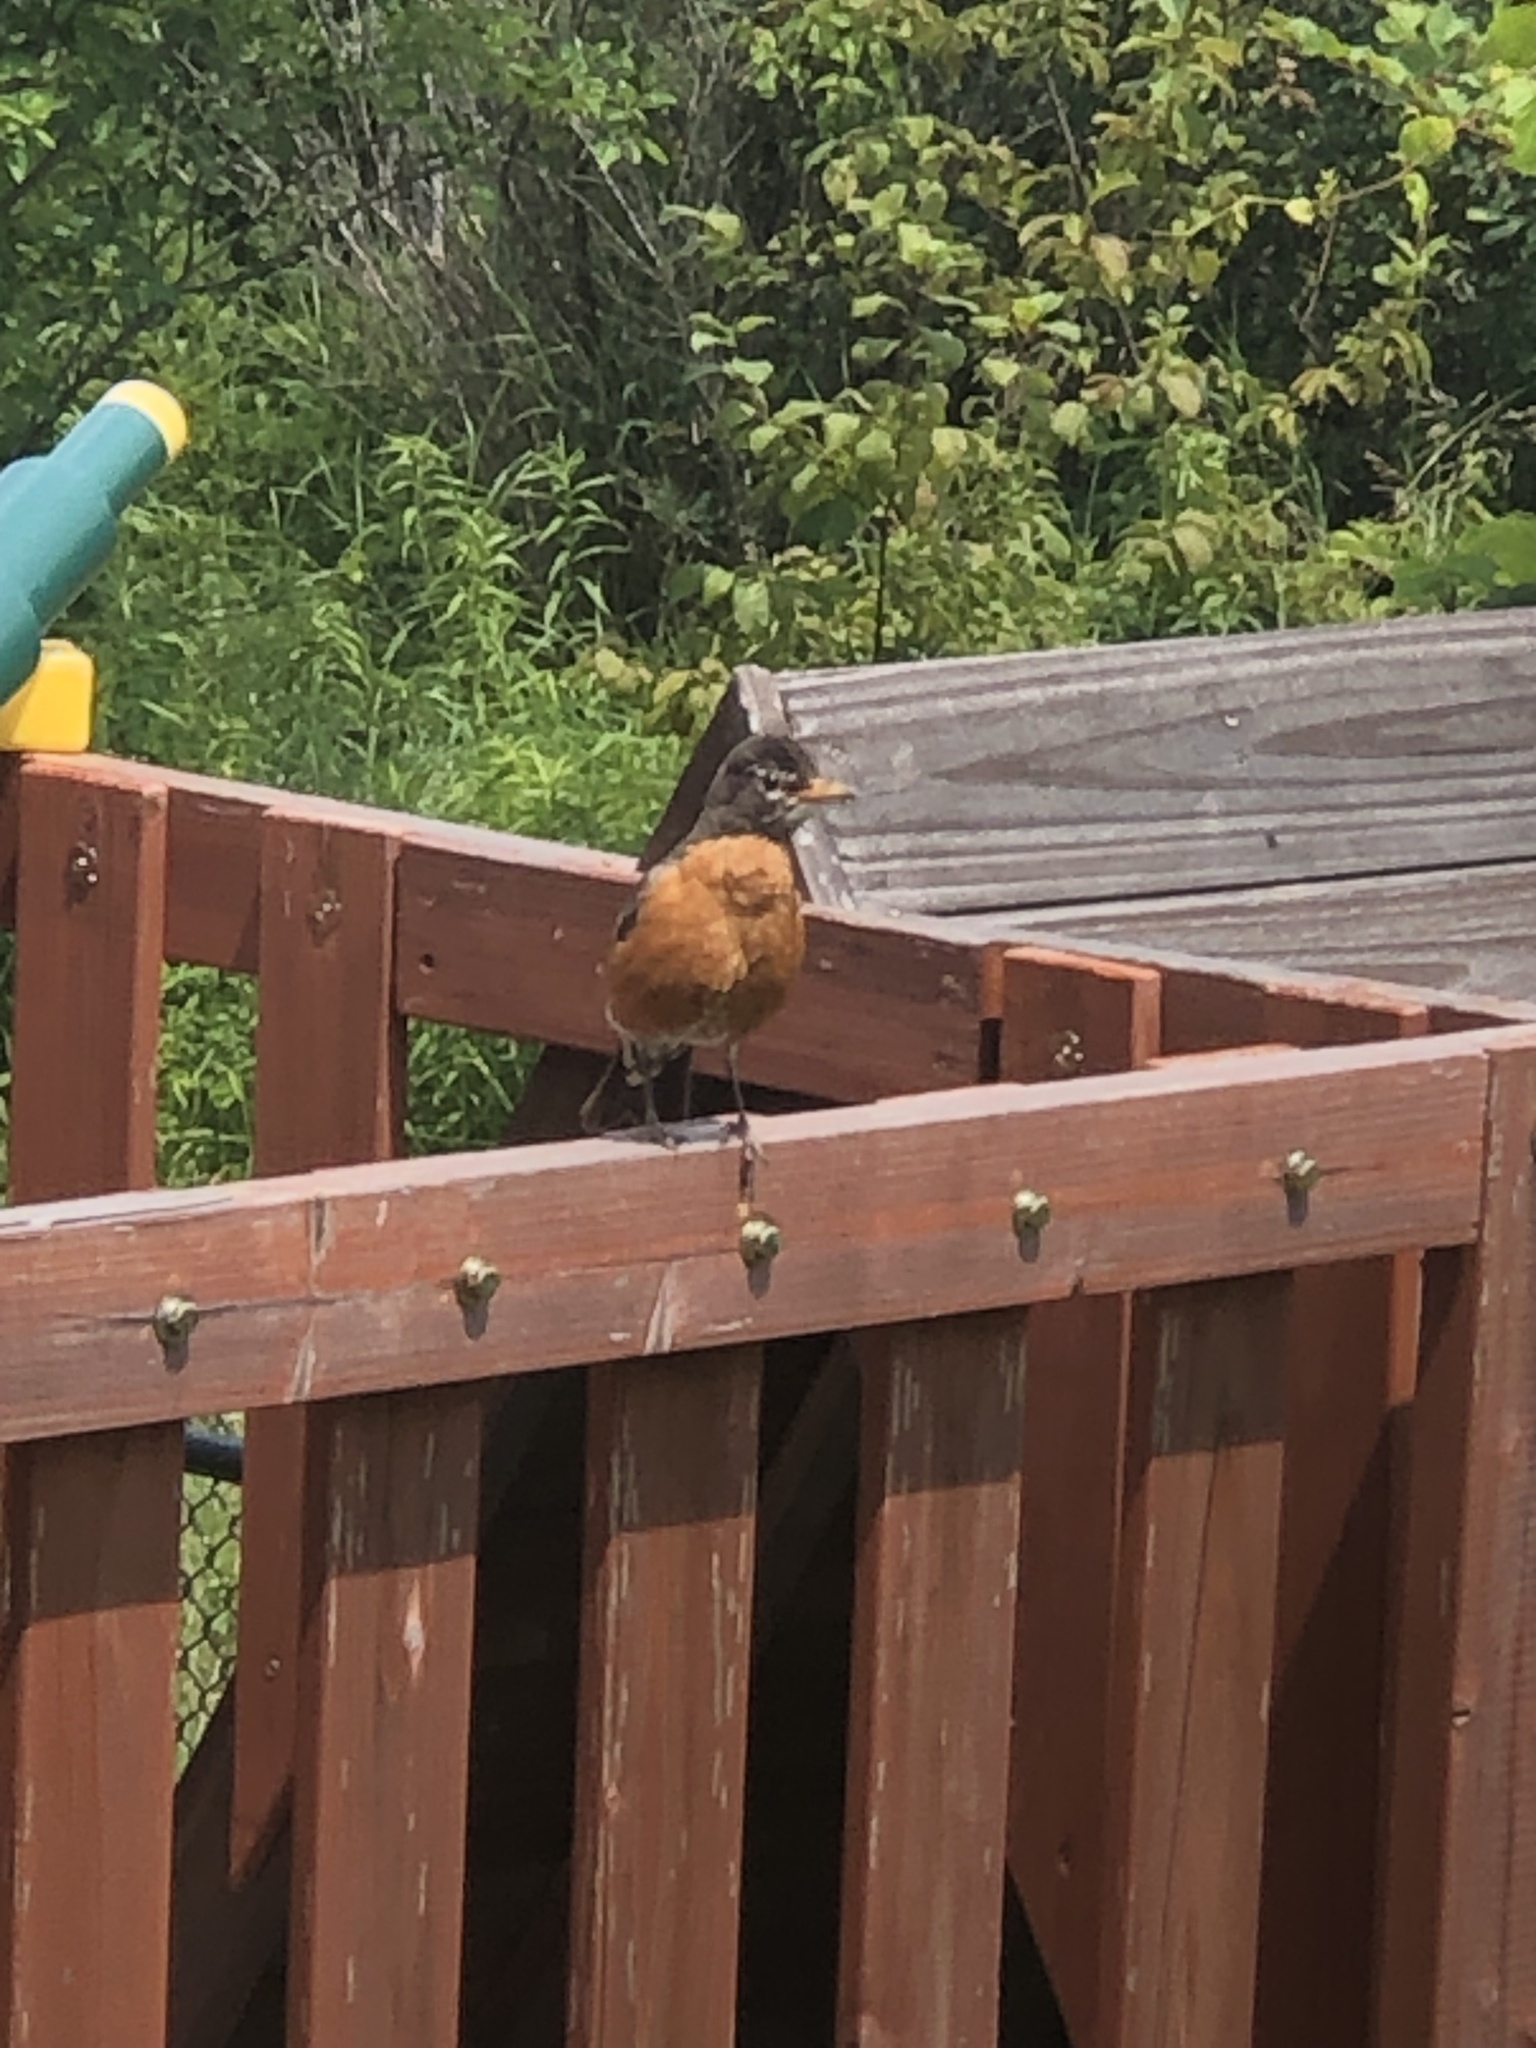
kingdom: Animalia
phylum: Chordata
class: Aves
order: Passeriformes
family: Turdidae
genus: Turdus
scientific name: Turdus migratorius
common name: American robin
